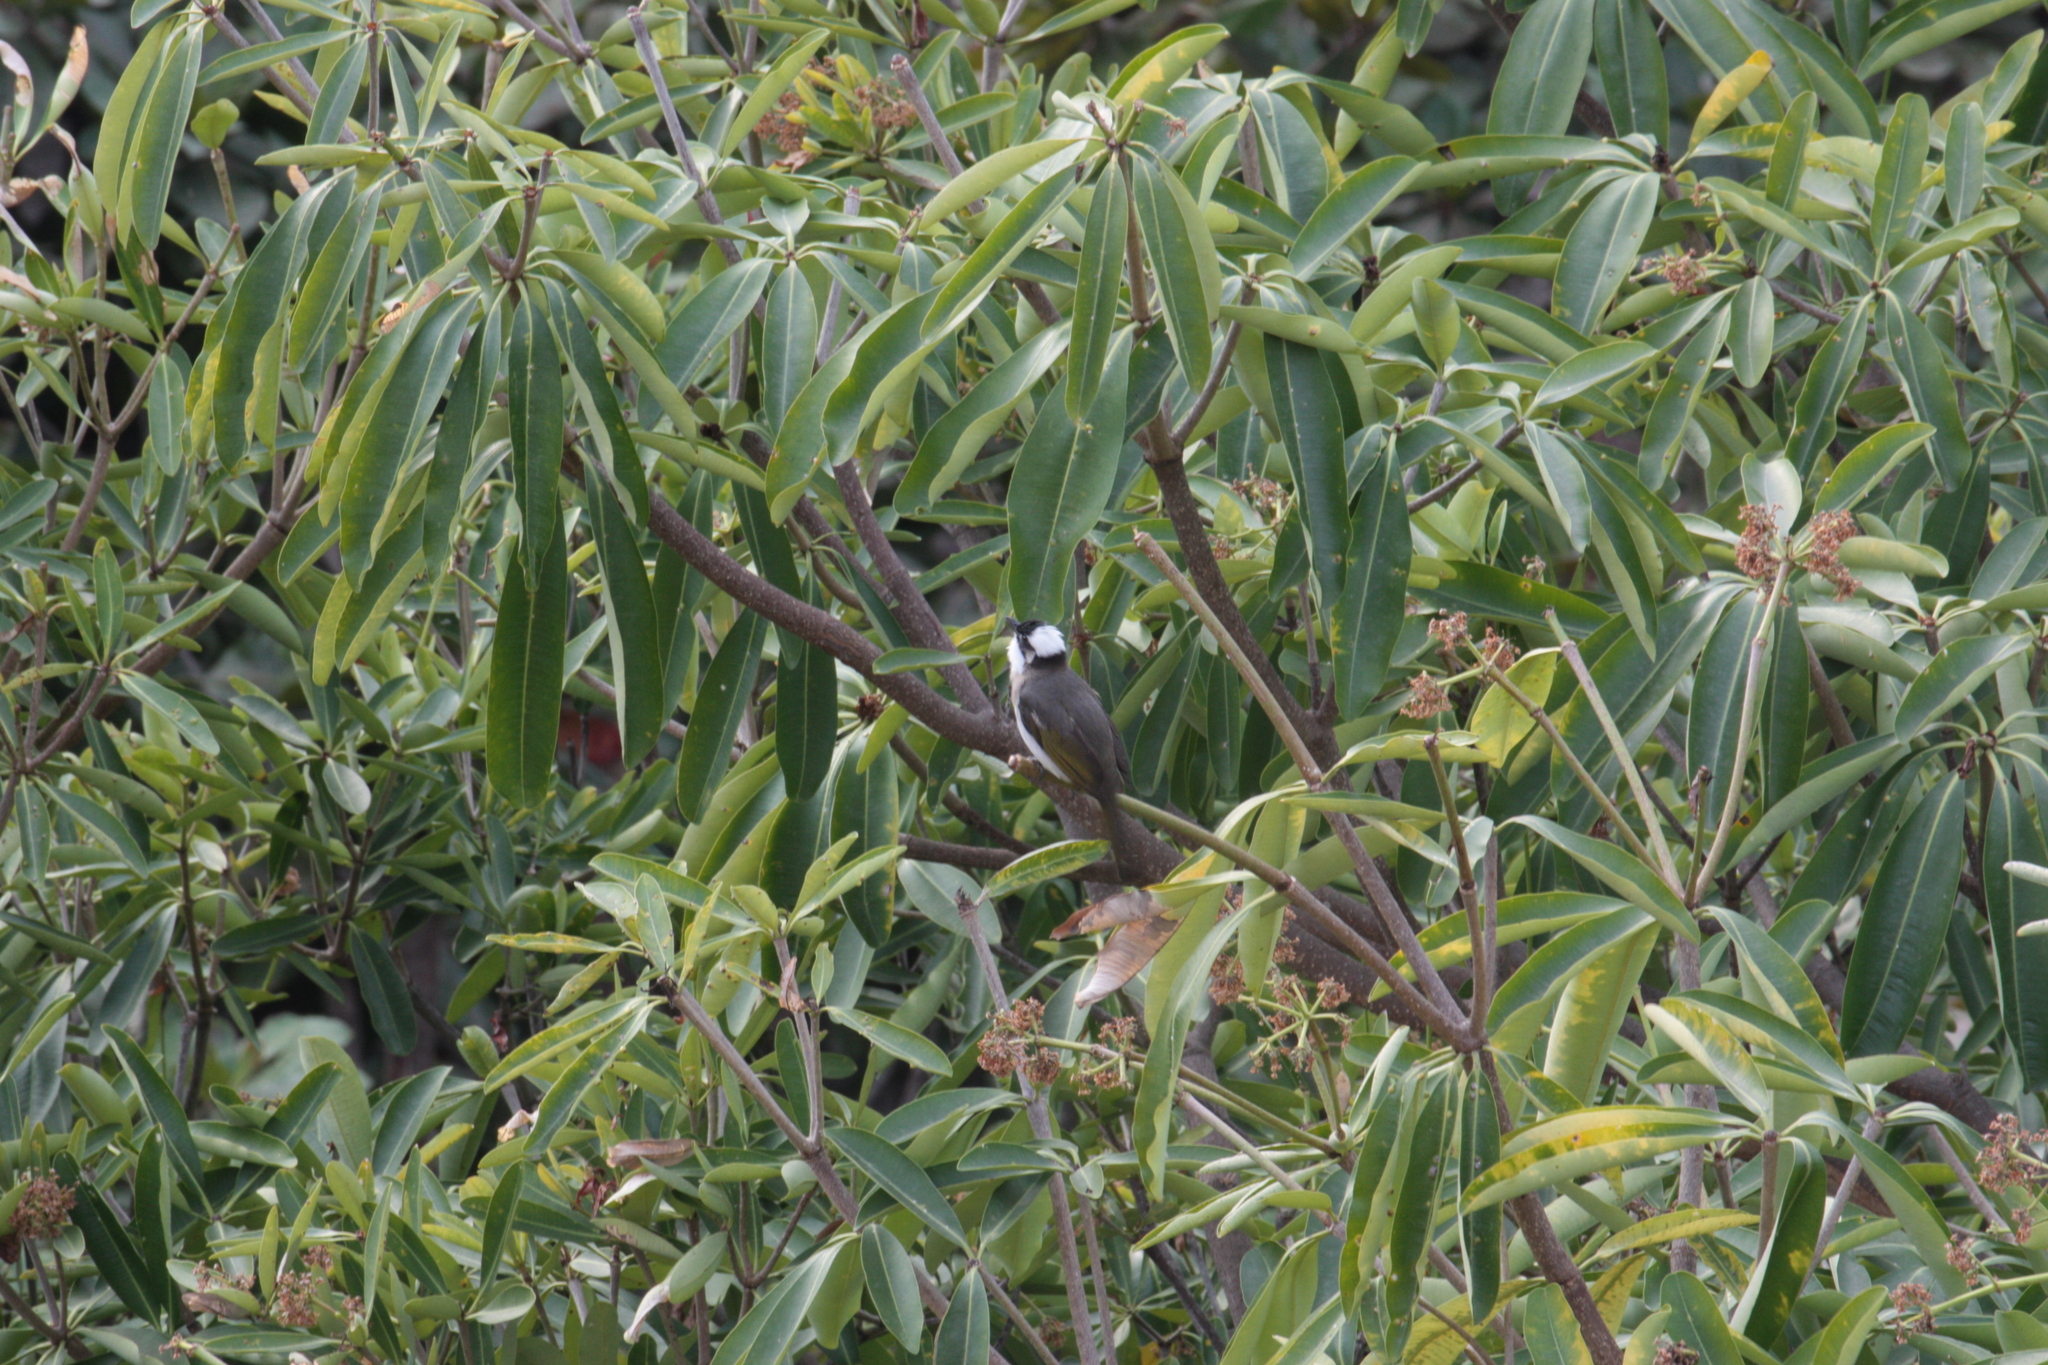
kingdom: Animalia
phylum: Chordata
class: Aves
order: Passeriformes
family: Pycnonotidae
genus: Pycnonotus
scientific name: Pycnonotus sinensis
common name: Light-vented bulbul
